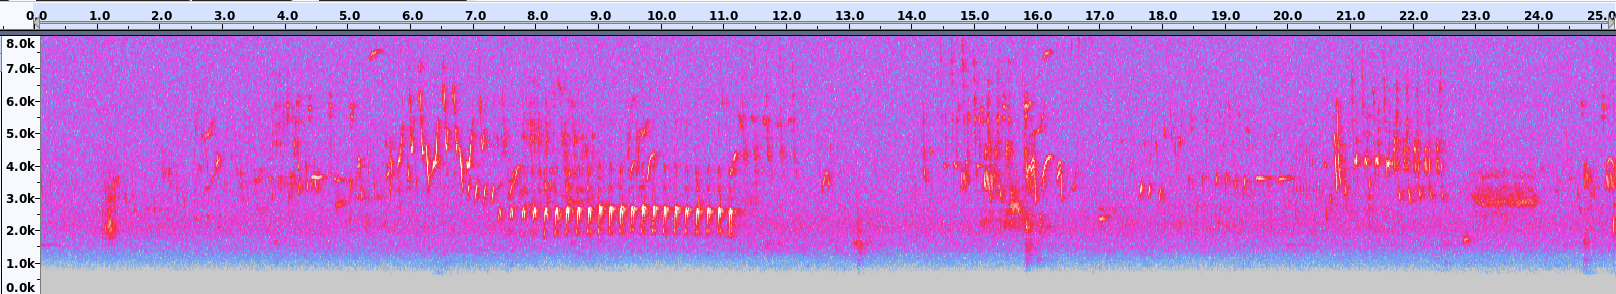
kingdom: Animalia
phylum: Chordata
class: Aves
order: Passeriformes
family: Parulidae
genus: Geothlypis
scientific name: Geothlypis trichas
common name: Common yellowthroat
